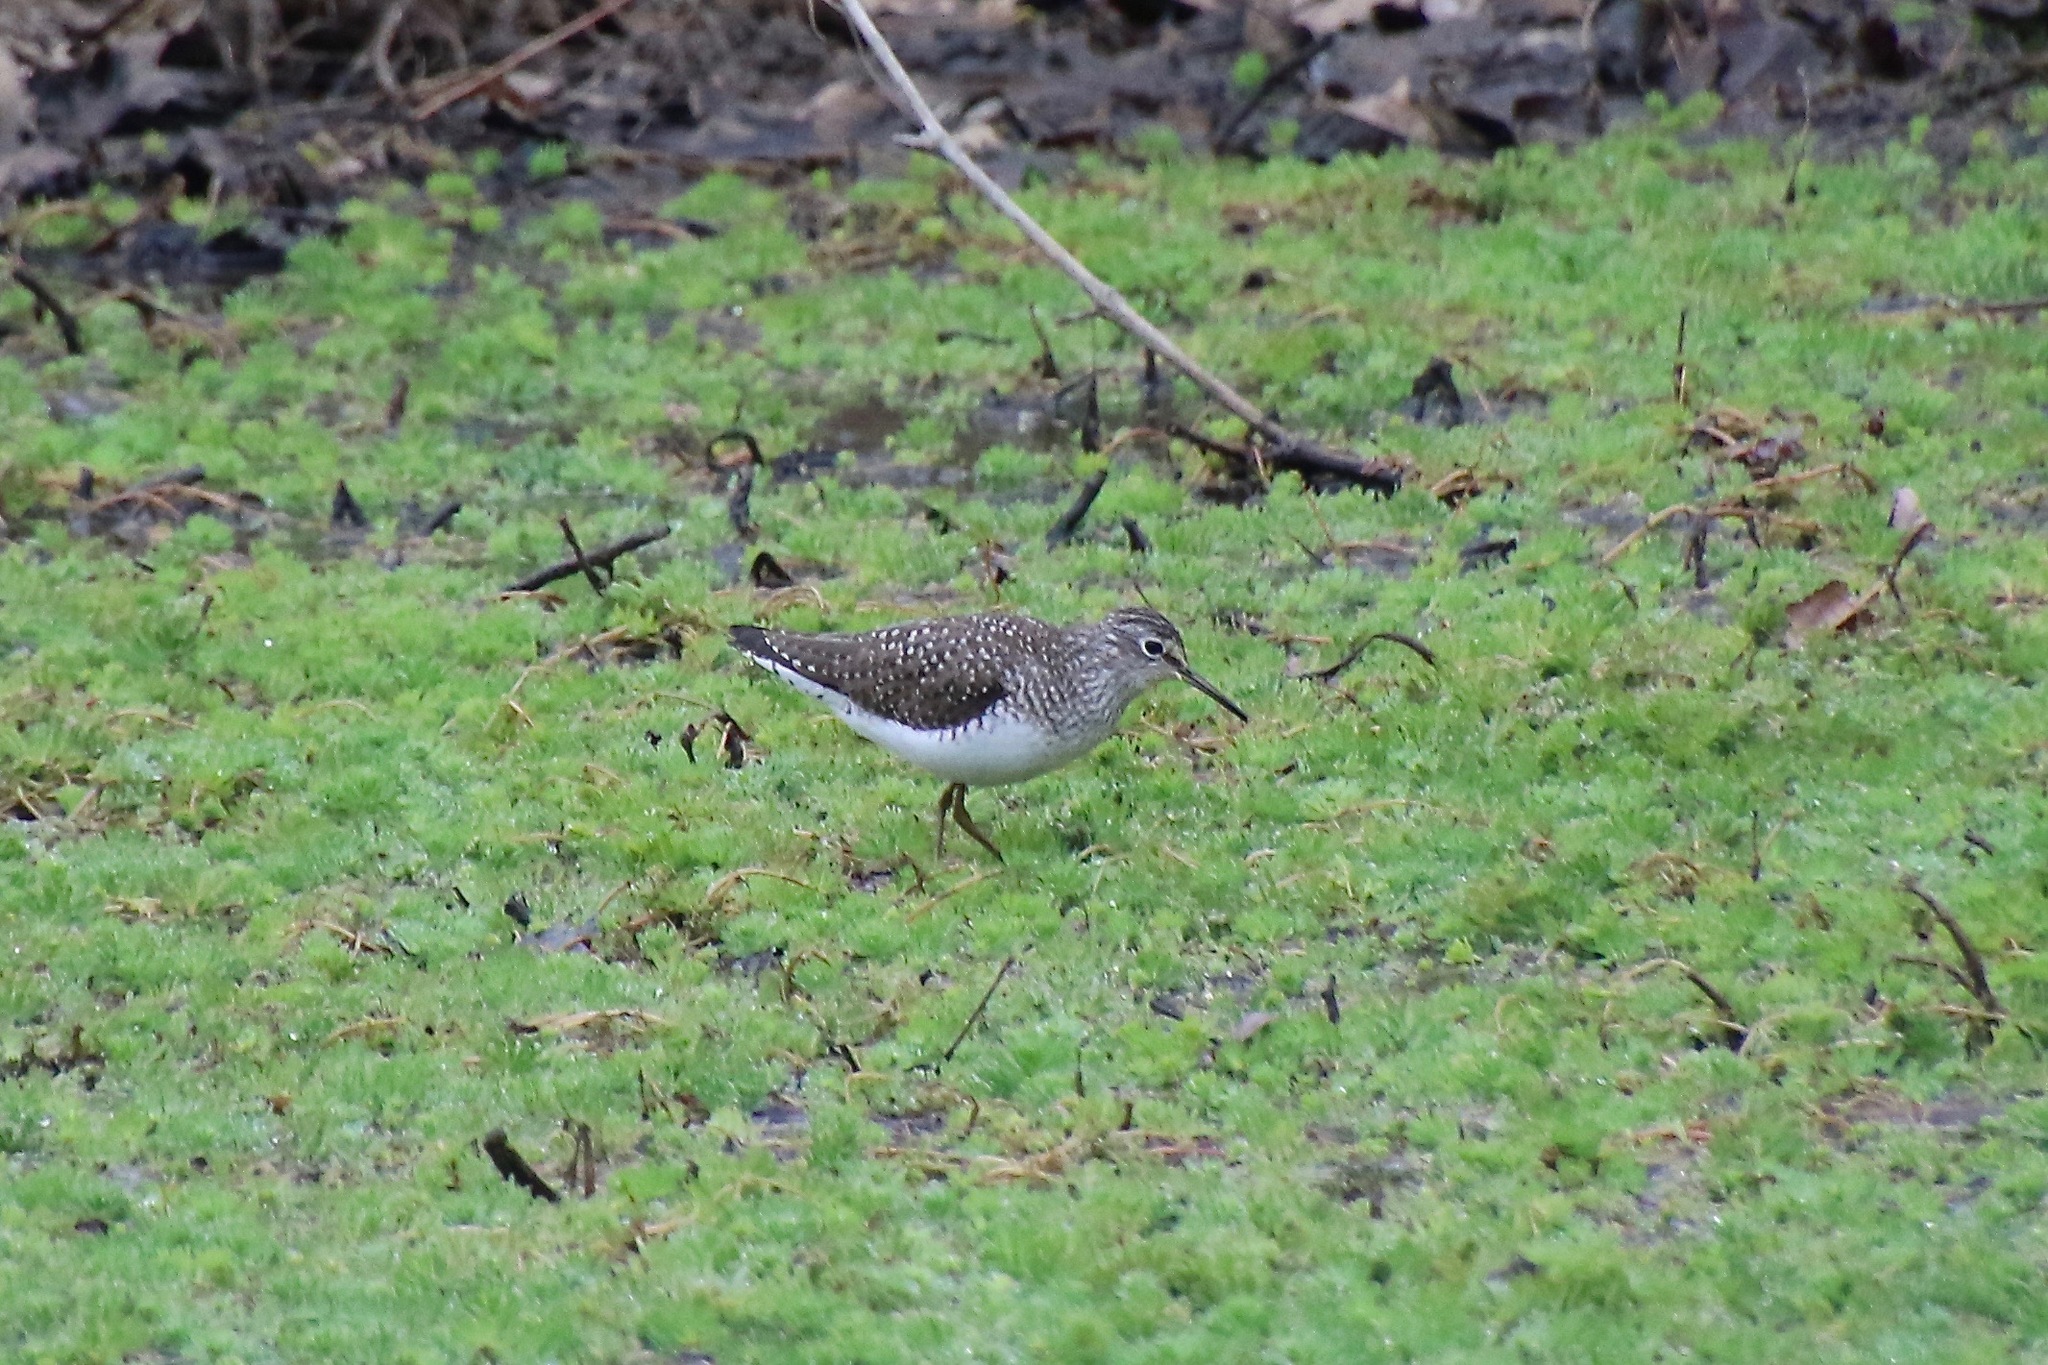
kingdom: Animalia
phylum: Chordata
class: Aves
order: Charadriiformes
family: Scolopacidae
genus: Tringa
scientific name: Tringa solitaria
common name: Solitary sandpiper
